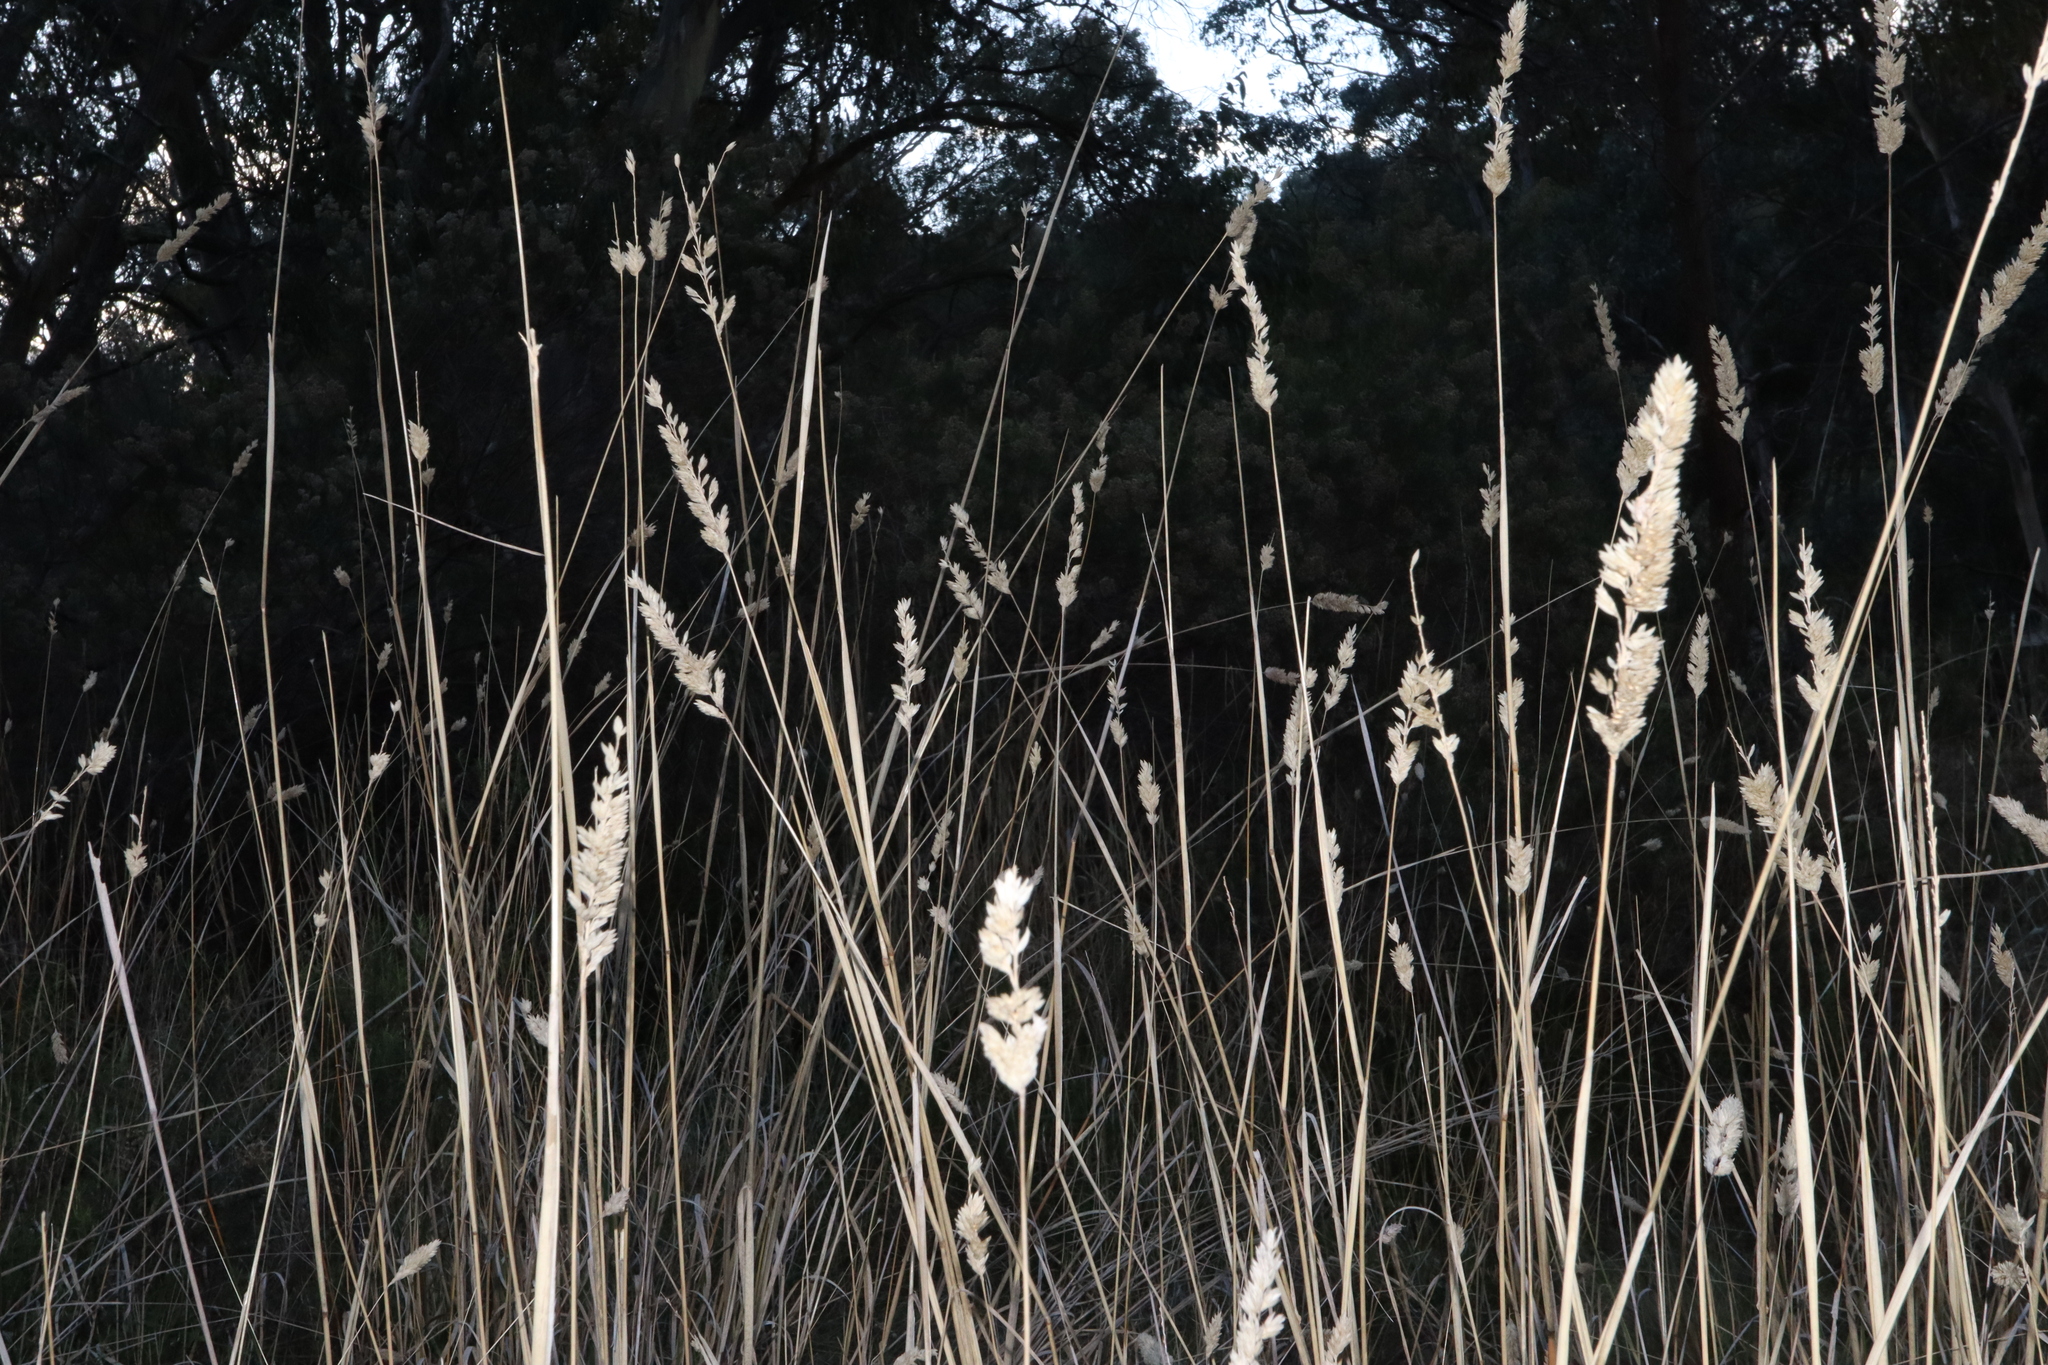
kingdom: Plantae
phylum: Tracheophyta
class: Liliopsida
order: Poales
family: Poaceae
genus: Phalaris
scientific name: Phalaris aquatica
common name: Bulbous canary-grass
